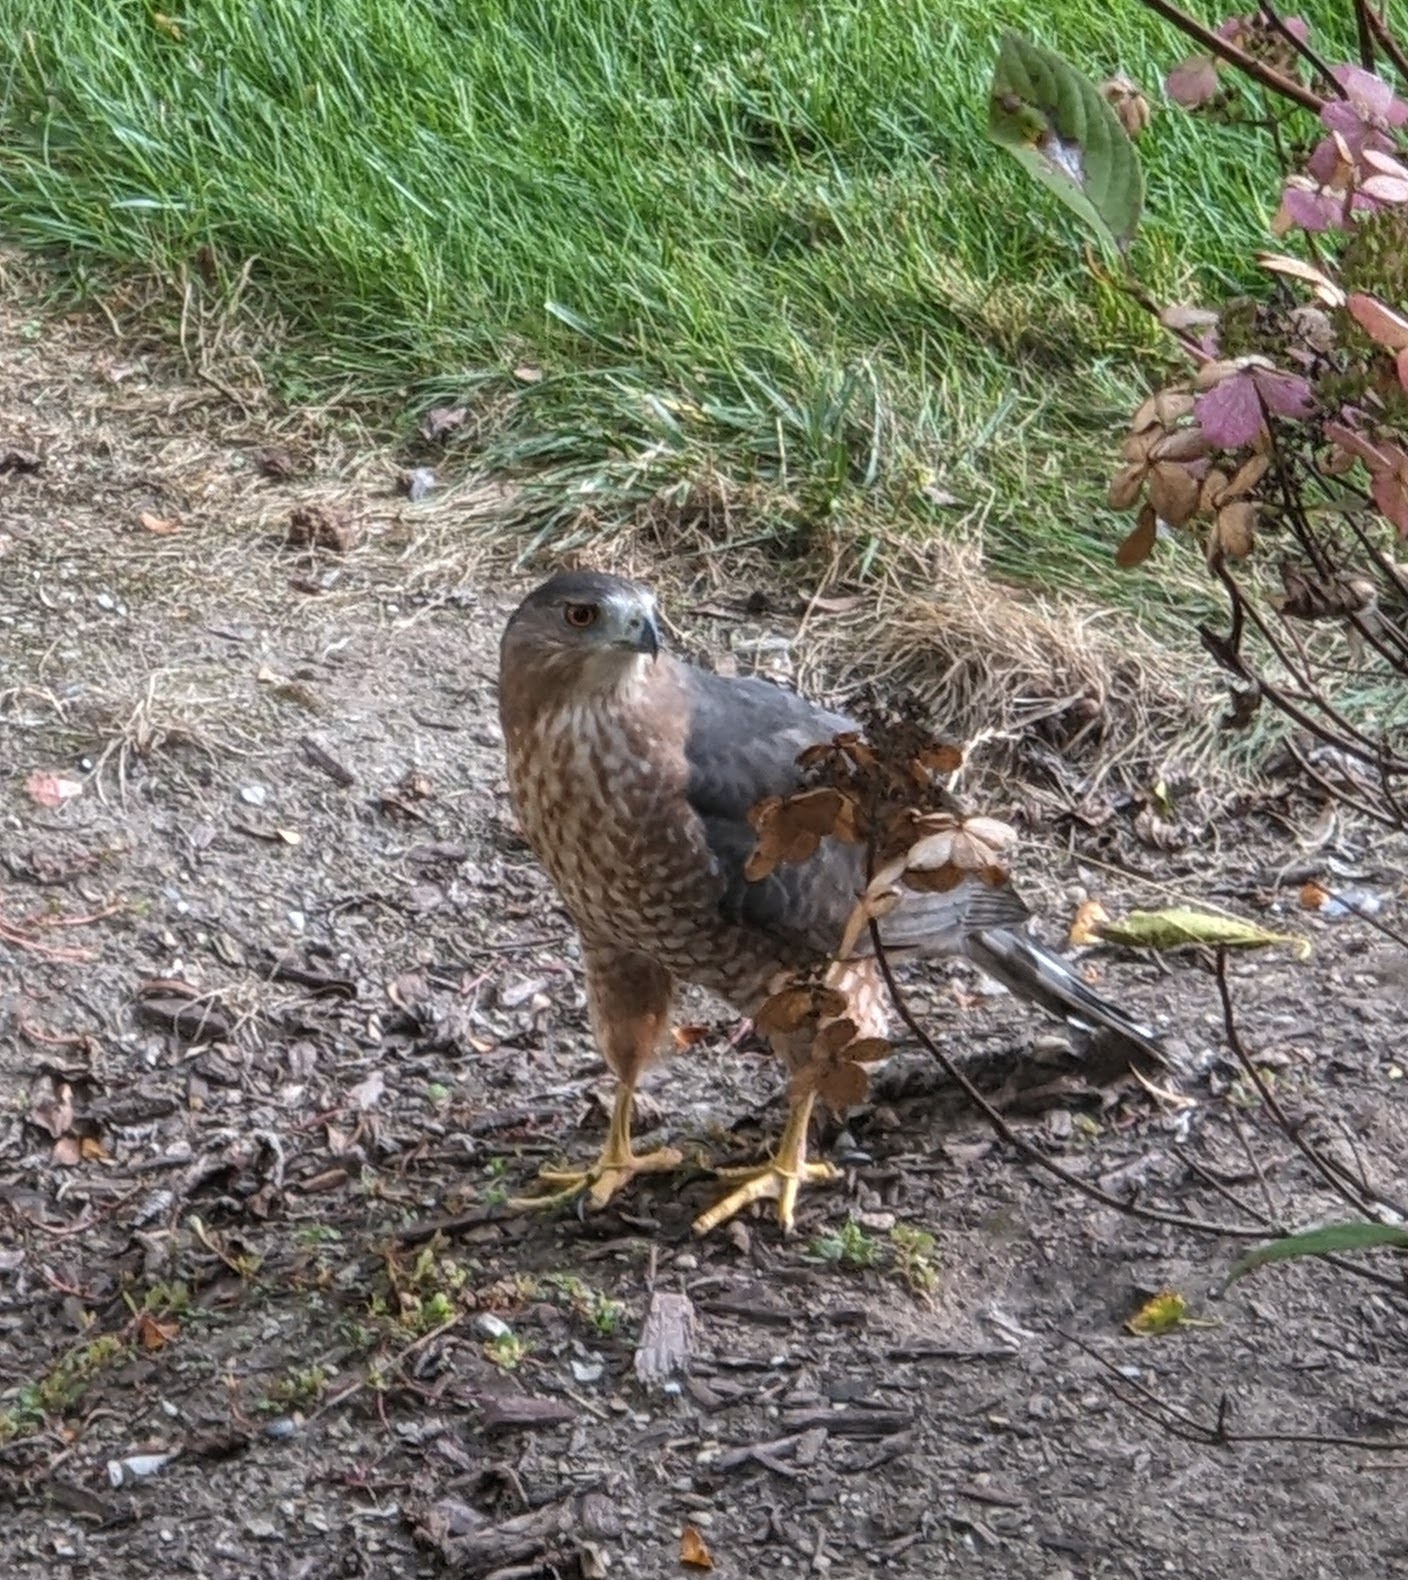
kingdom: Animalia
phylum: Chordata
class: Aves
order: Accipitriformes
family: Accipitridae
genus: Accipiter
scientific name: Accipiter cooperii
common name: Cooper's hawk
